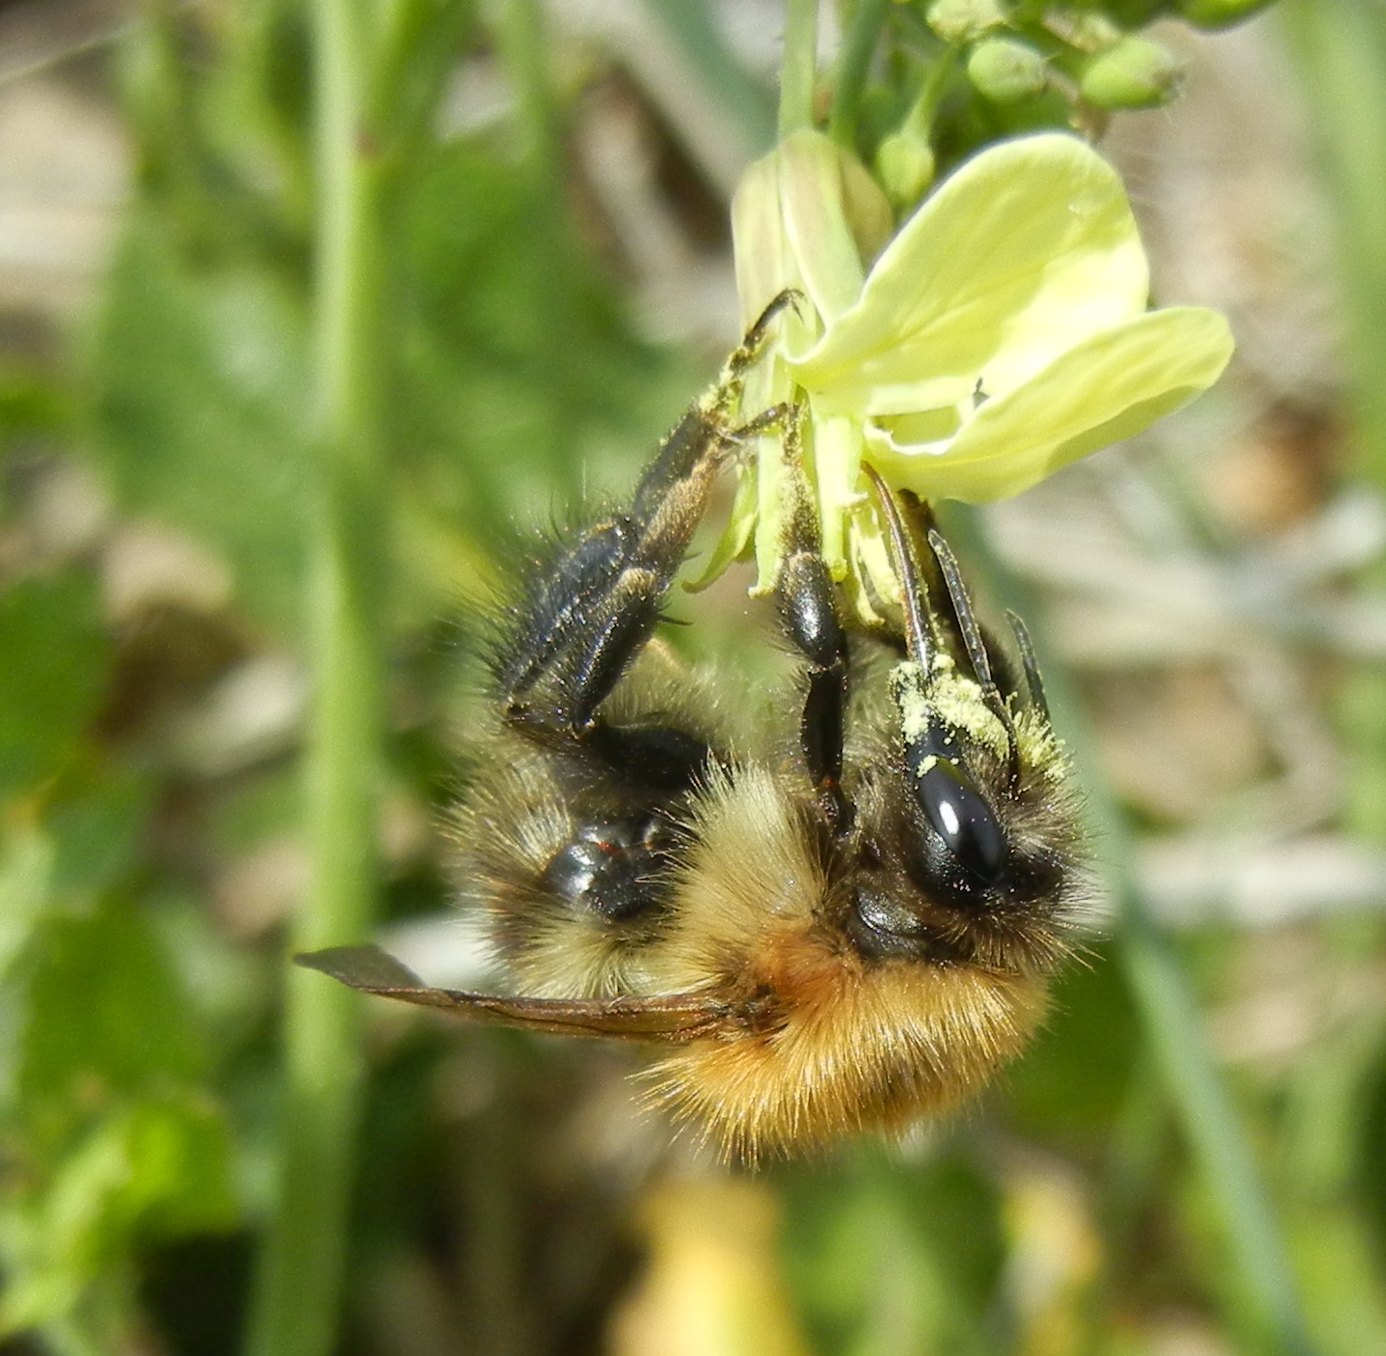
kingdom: Animalia
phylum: Arthropoda
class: Insecta
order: Hymenoptera
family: Apidae
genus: Bombus
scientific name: Bombus pascuorum
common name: Common carder bee
